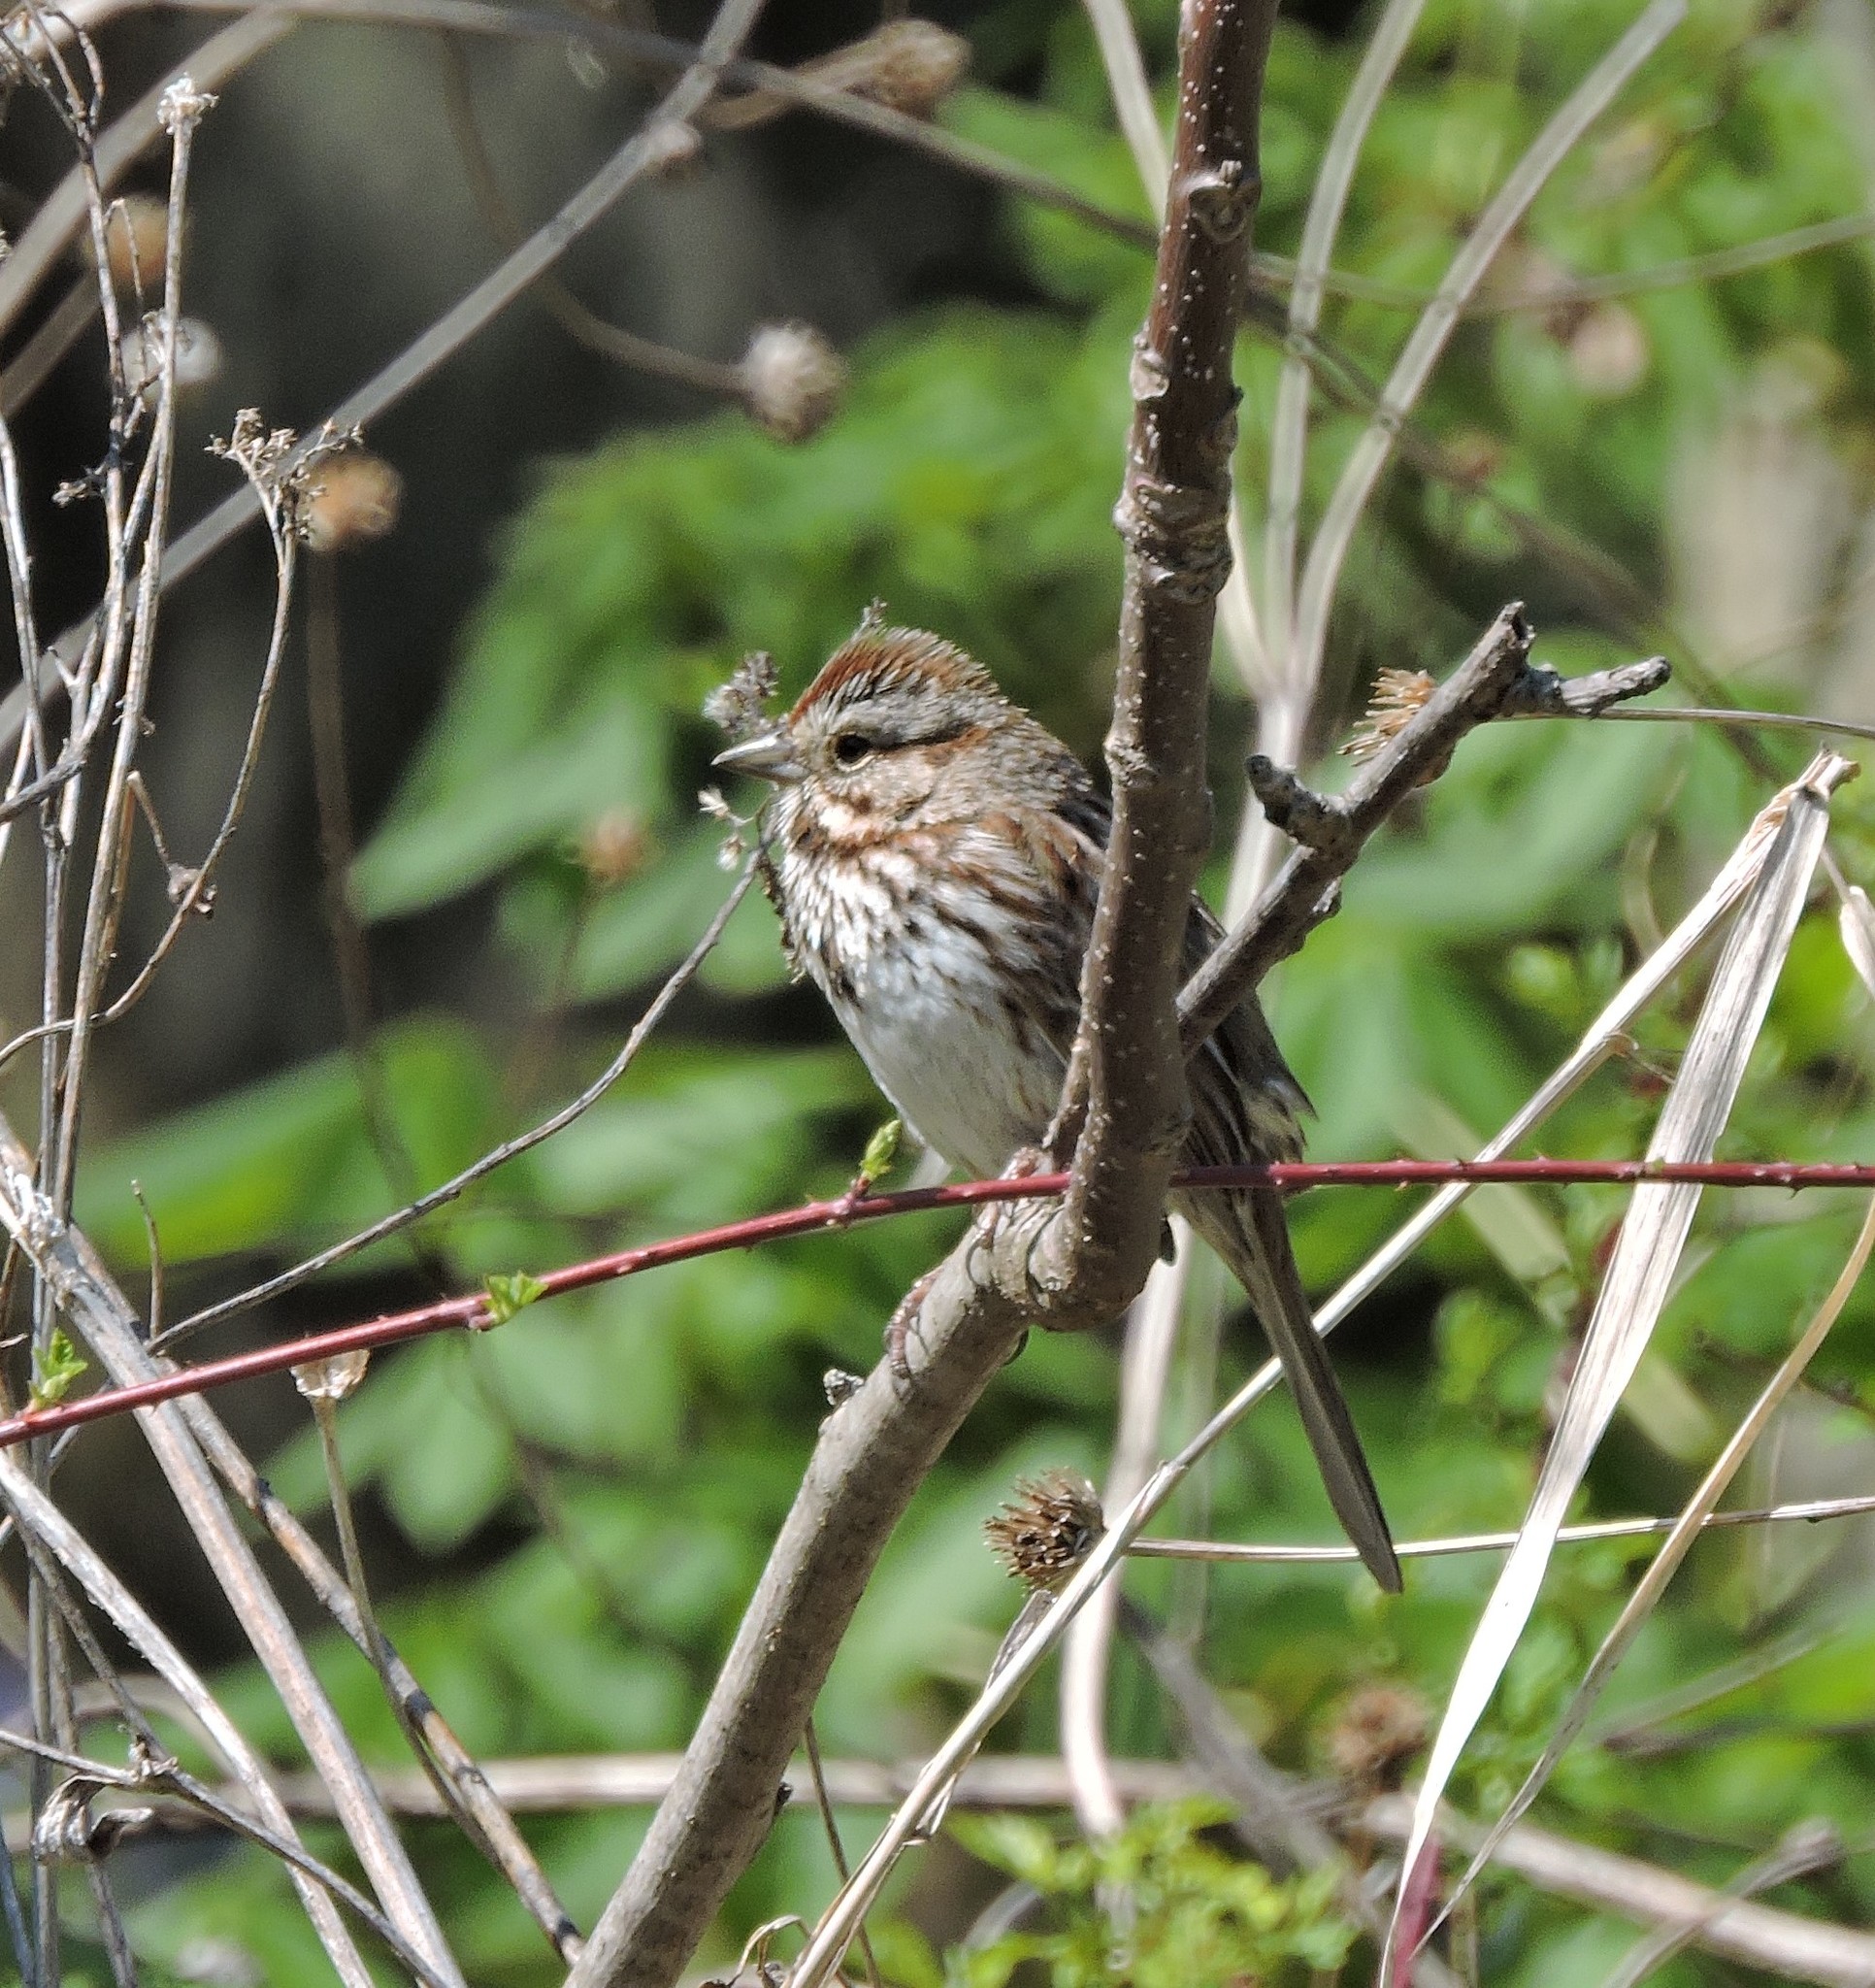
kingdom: Animalia
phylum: Chordata
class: Aves
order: Passeriformes
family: Passerellidae
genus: Melospiza
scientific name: Melospiza melodia
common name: Song sparrow
